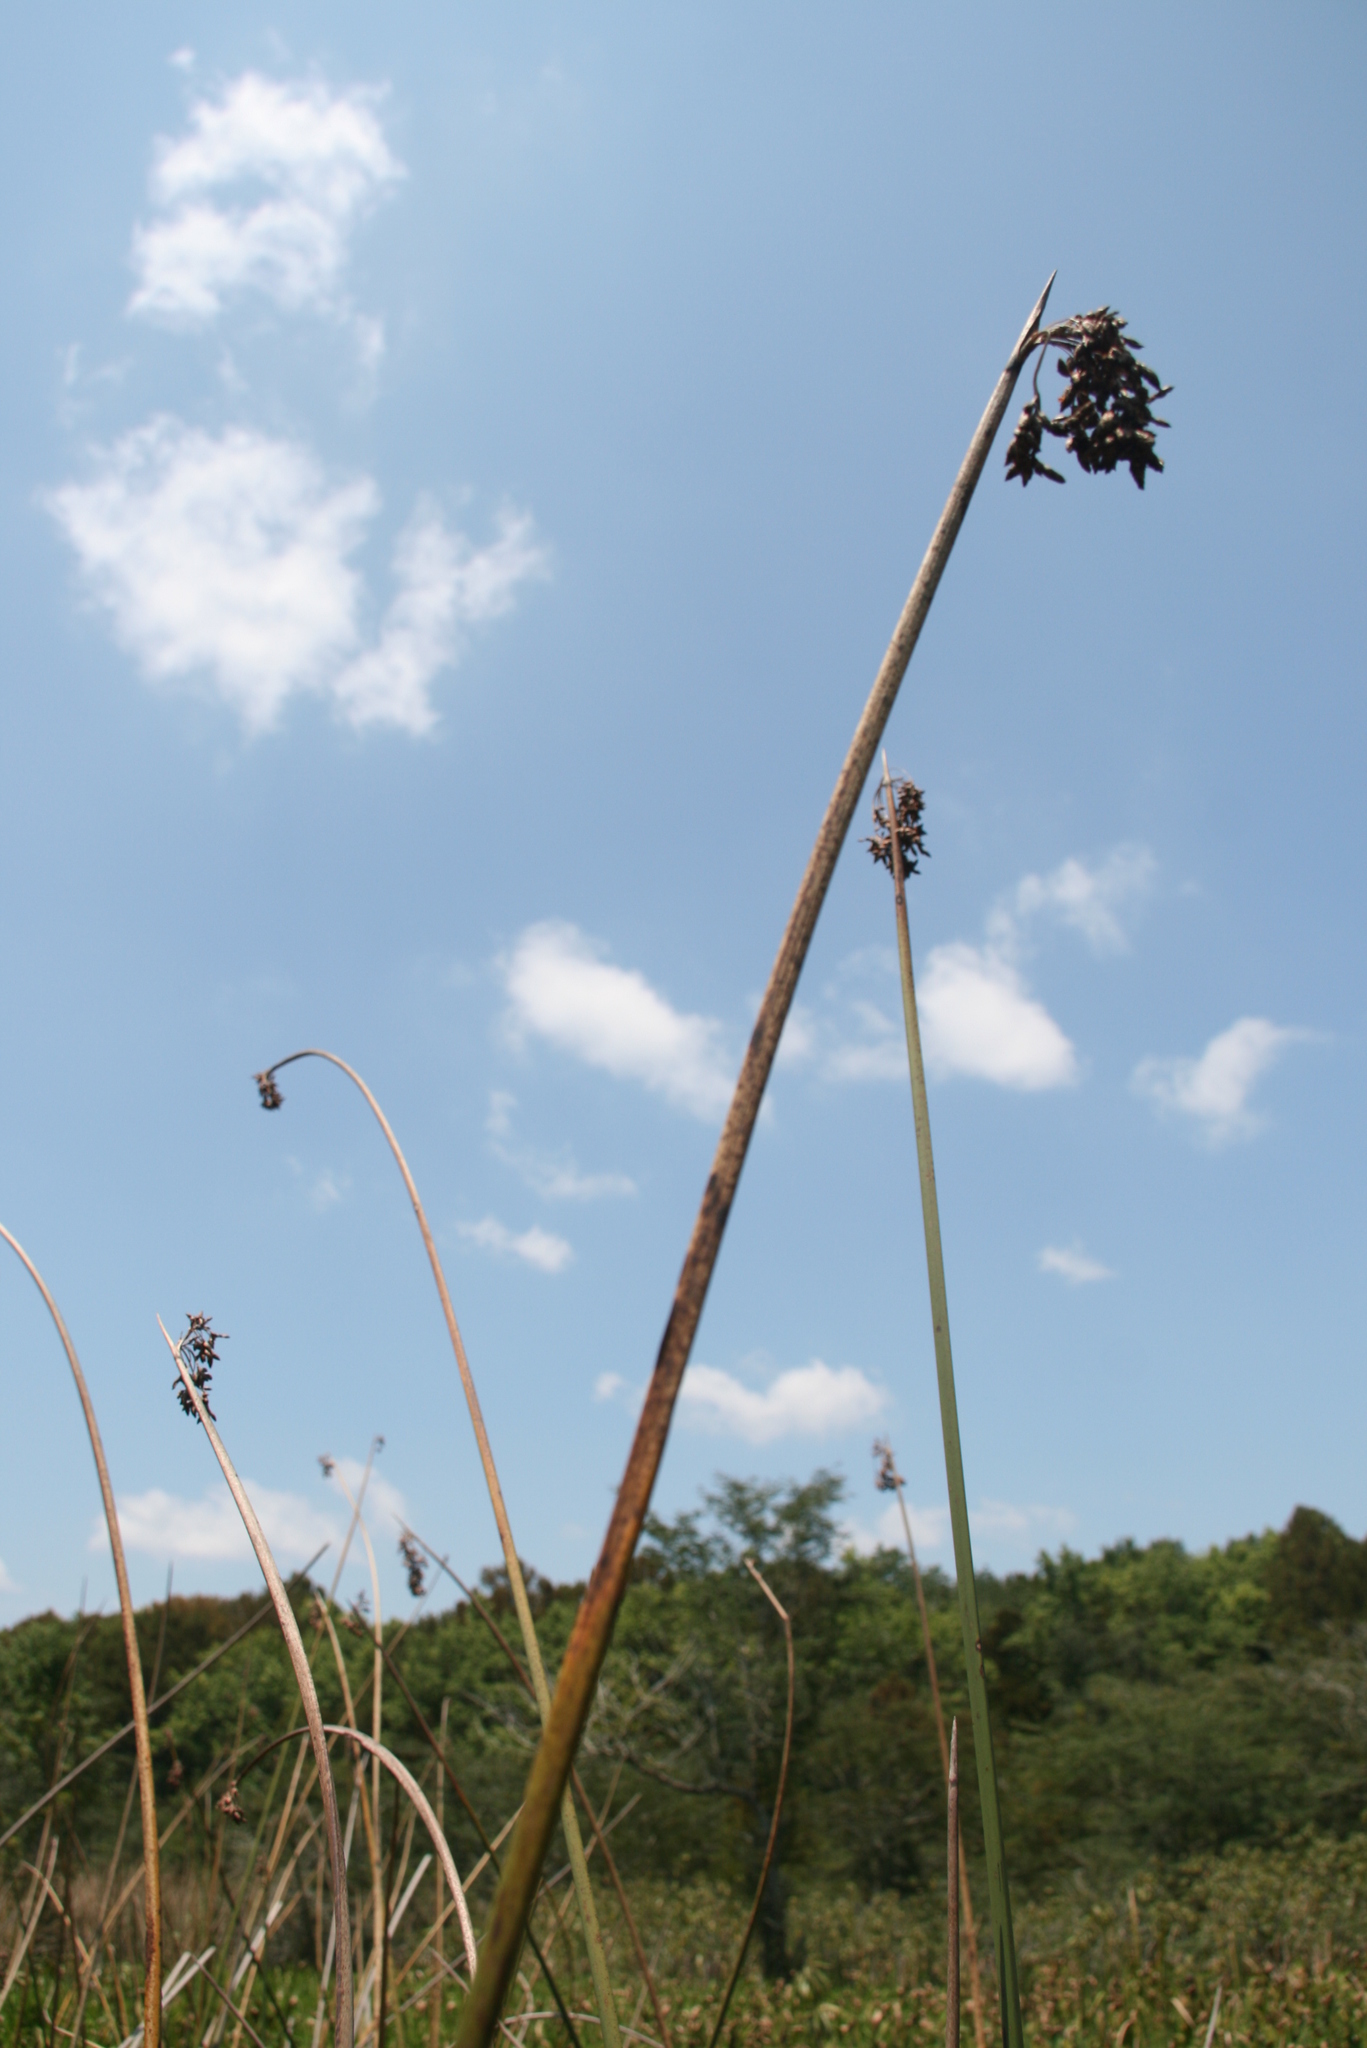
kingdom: Plantae
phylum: Tracheophyta
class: Liliopsida
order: Poales
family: Cyperaceae
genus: Schoenoplectus
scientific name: Schoenoplectus californicus
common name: California bulrush
